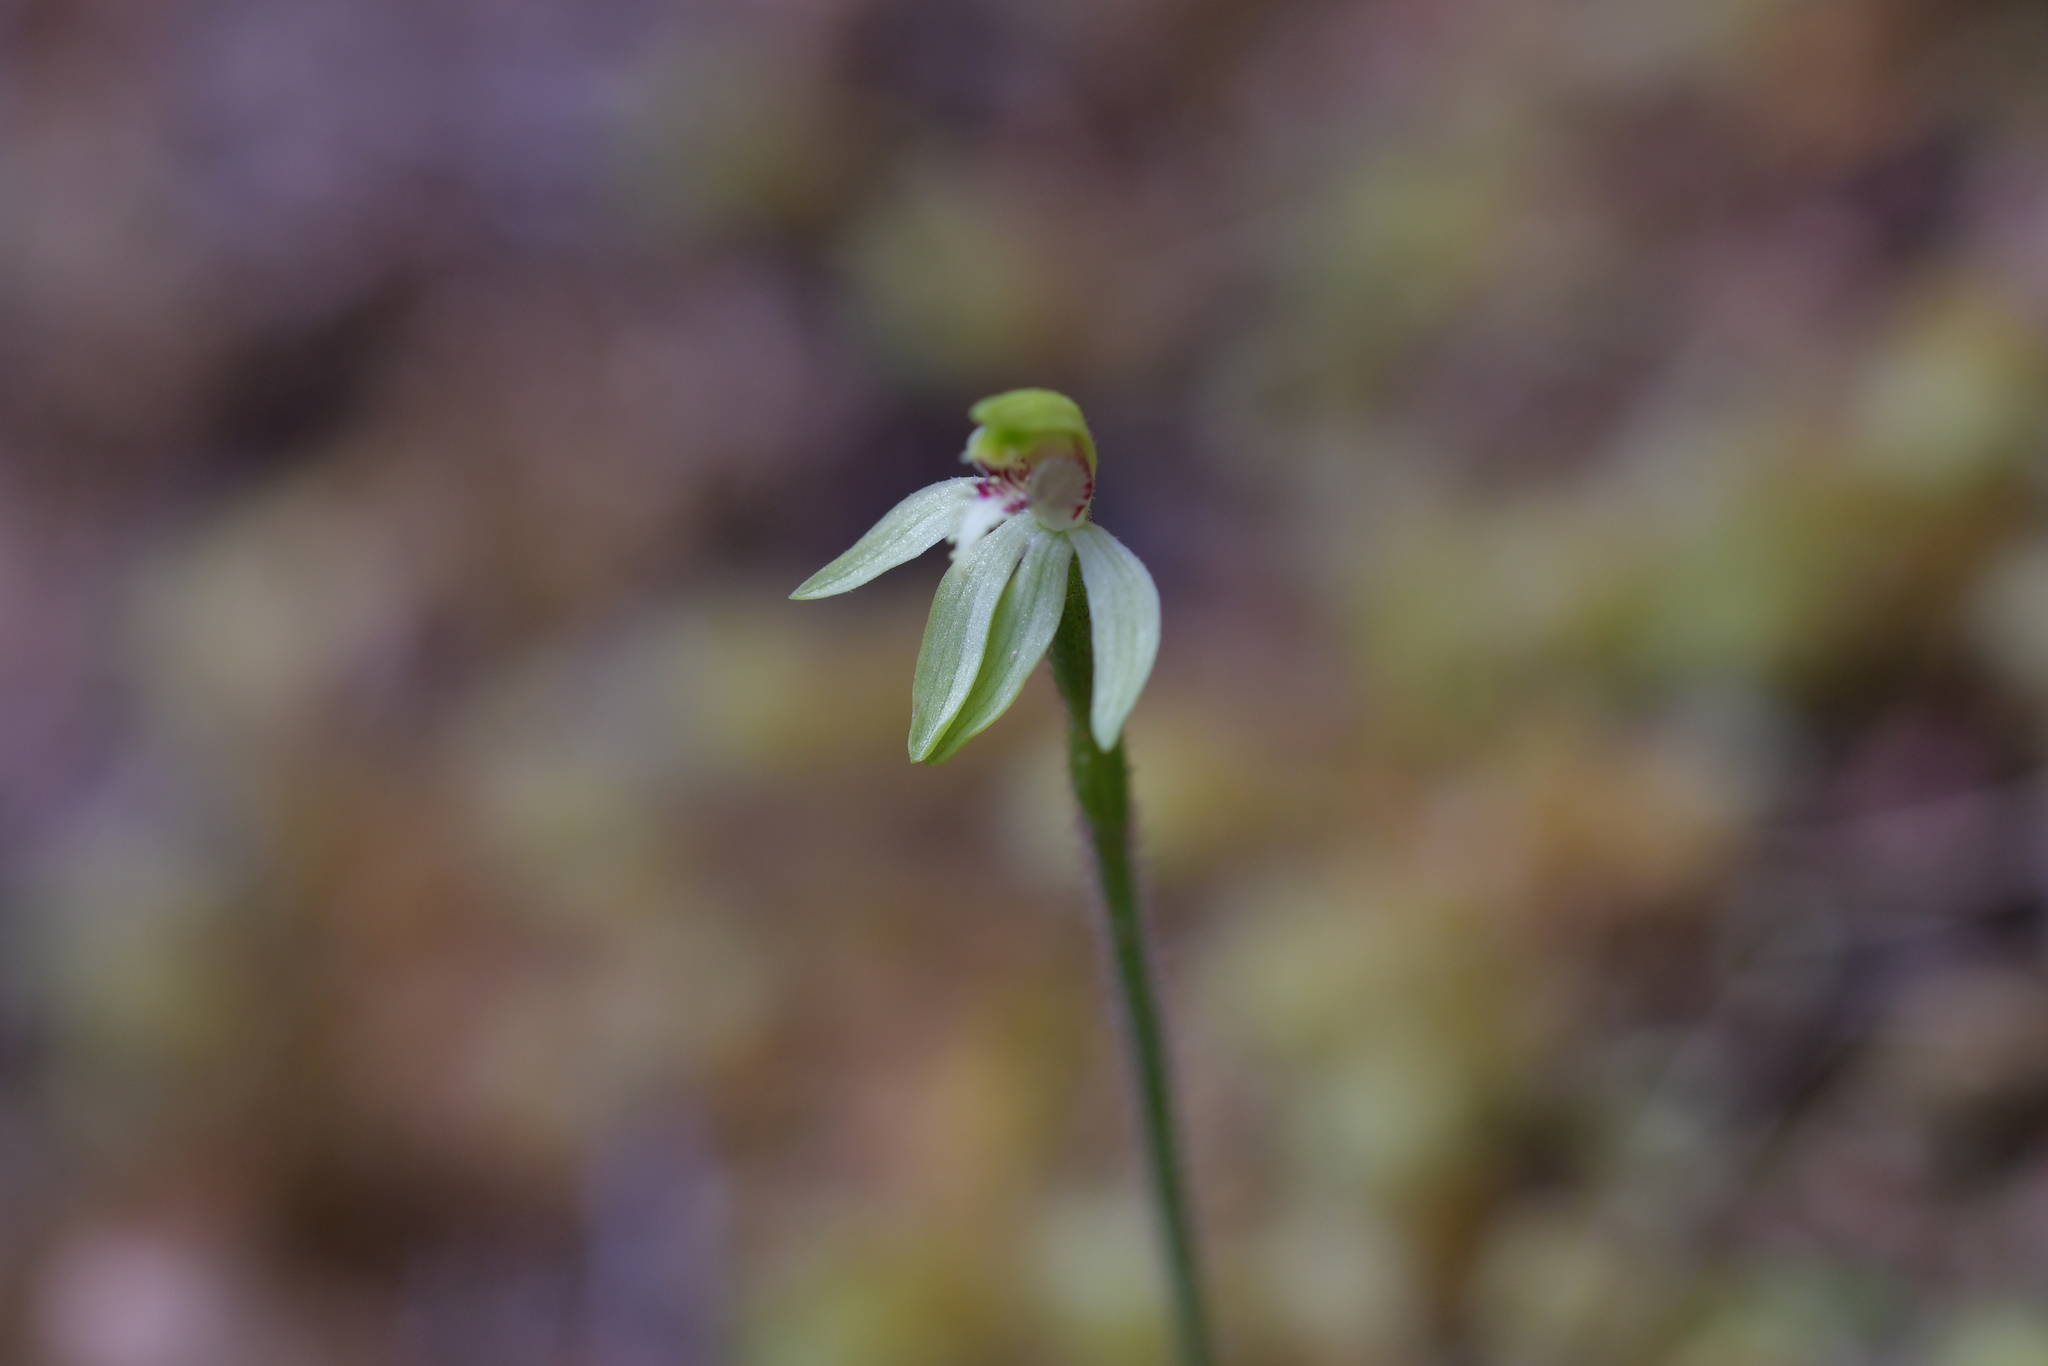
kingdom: Plantae
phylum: Tracheophyta
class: Liliopsida
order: Asparagales
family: Orchidaceae
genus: Caladenia
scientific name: Caladenia chlorostyla
